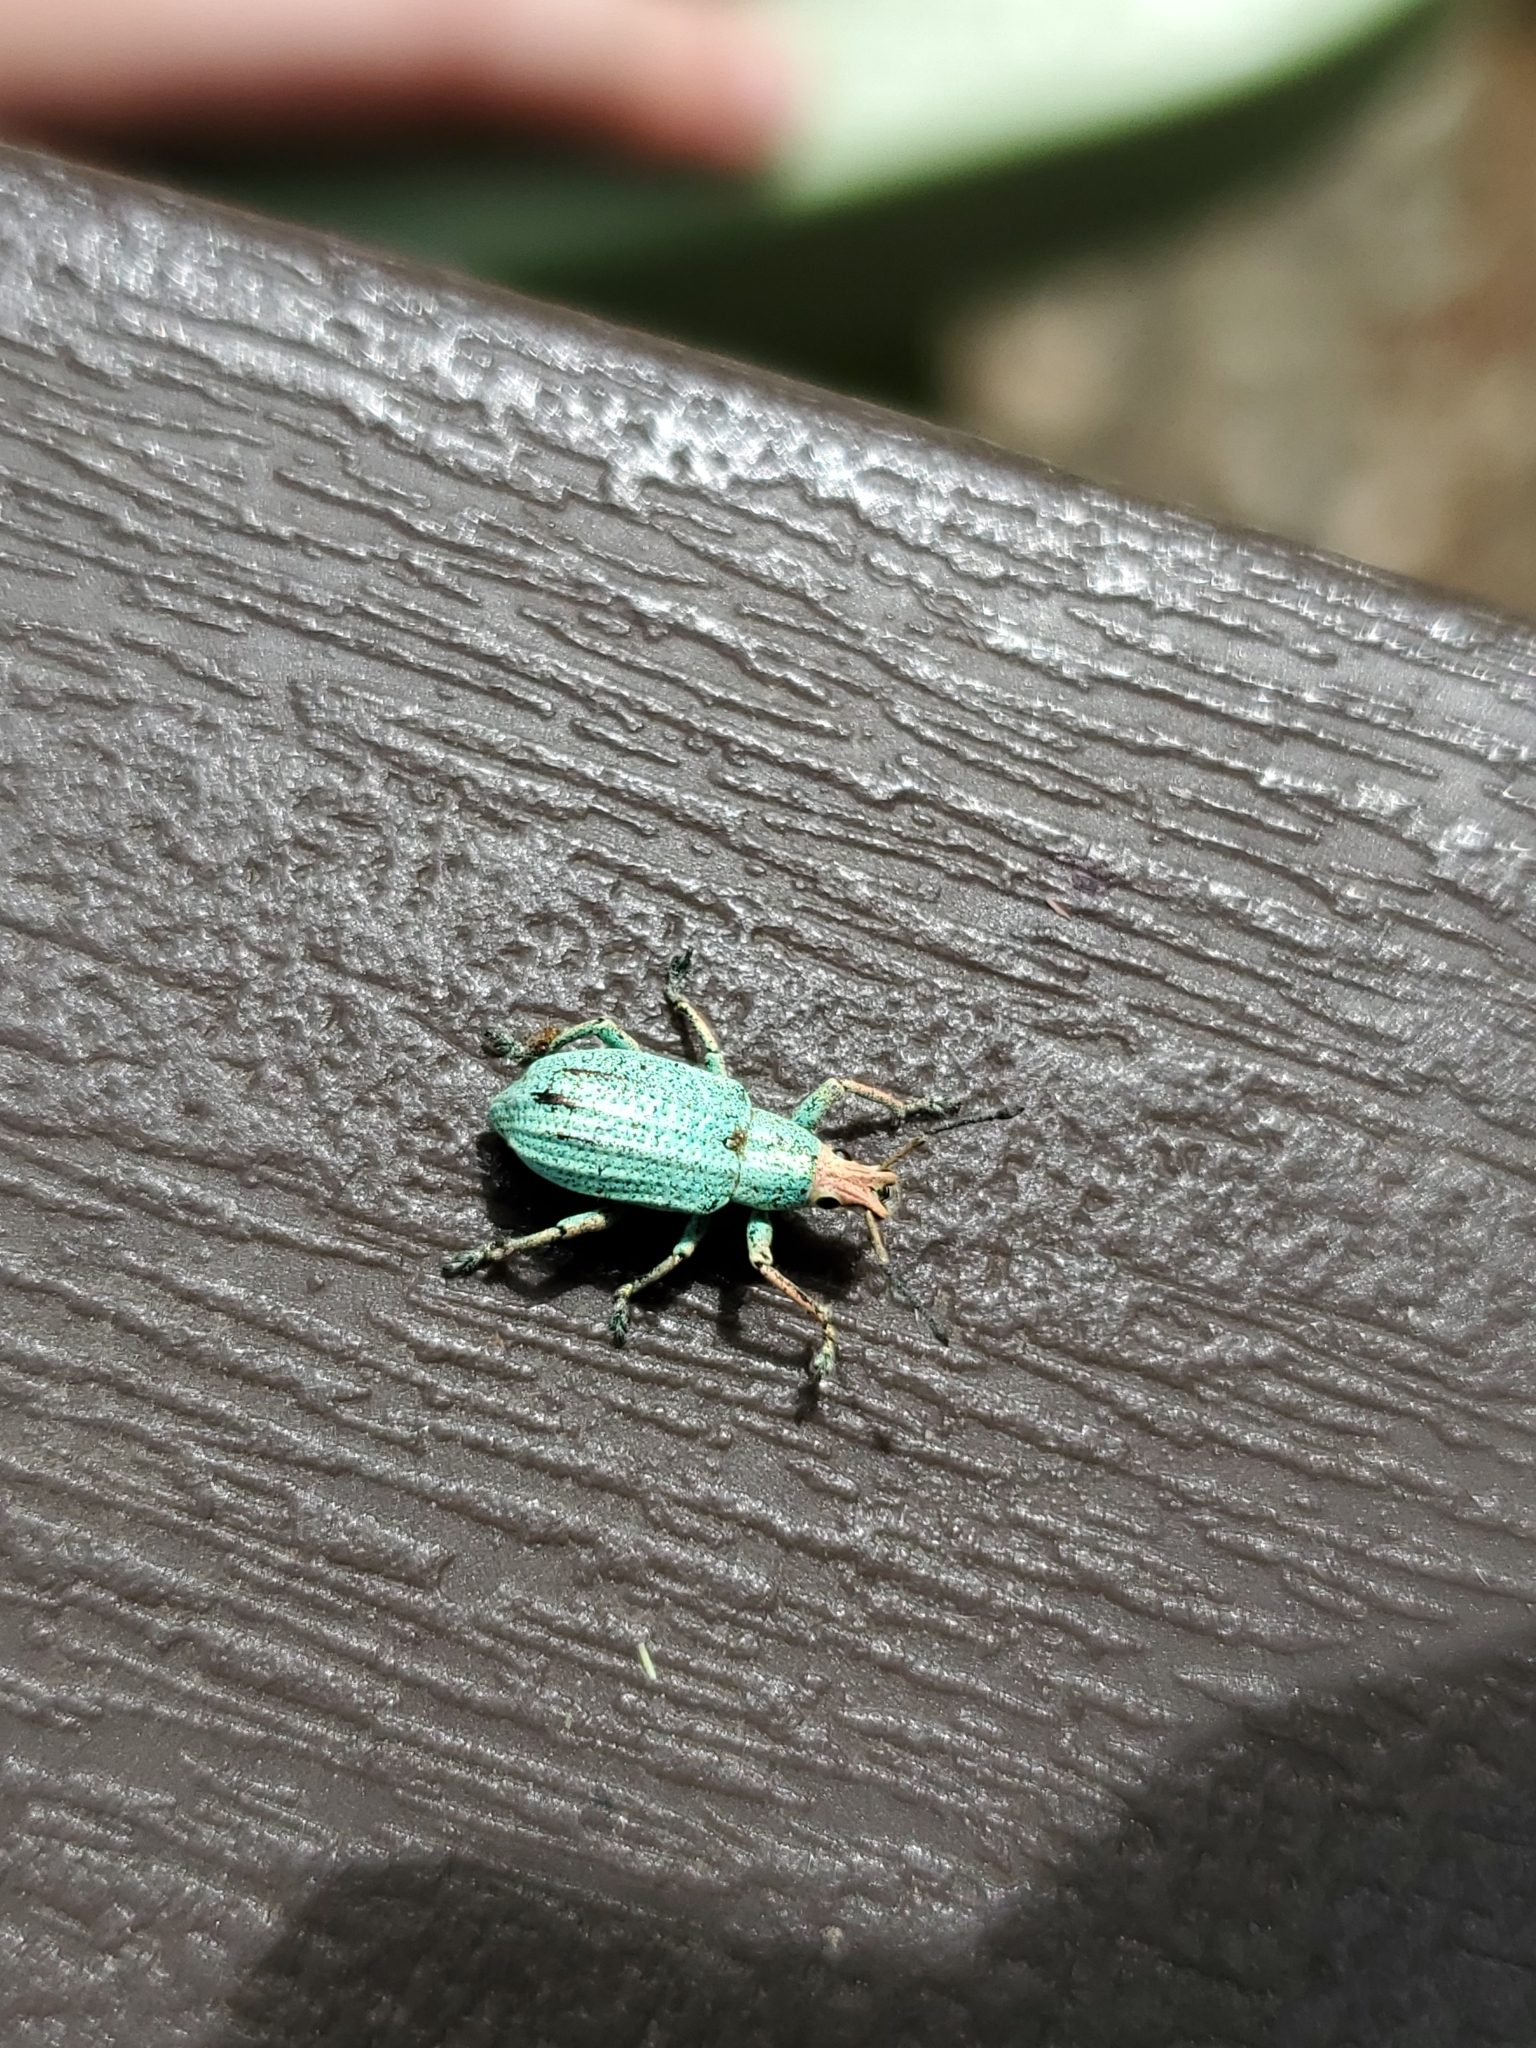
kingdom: Animalia
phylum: Arthropoda
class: Insecta
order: Coleoptera
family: Curculionidae
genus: Compsus
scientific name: Compsus auricephalus
